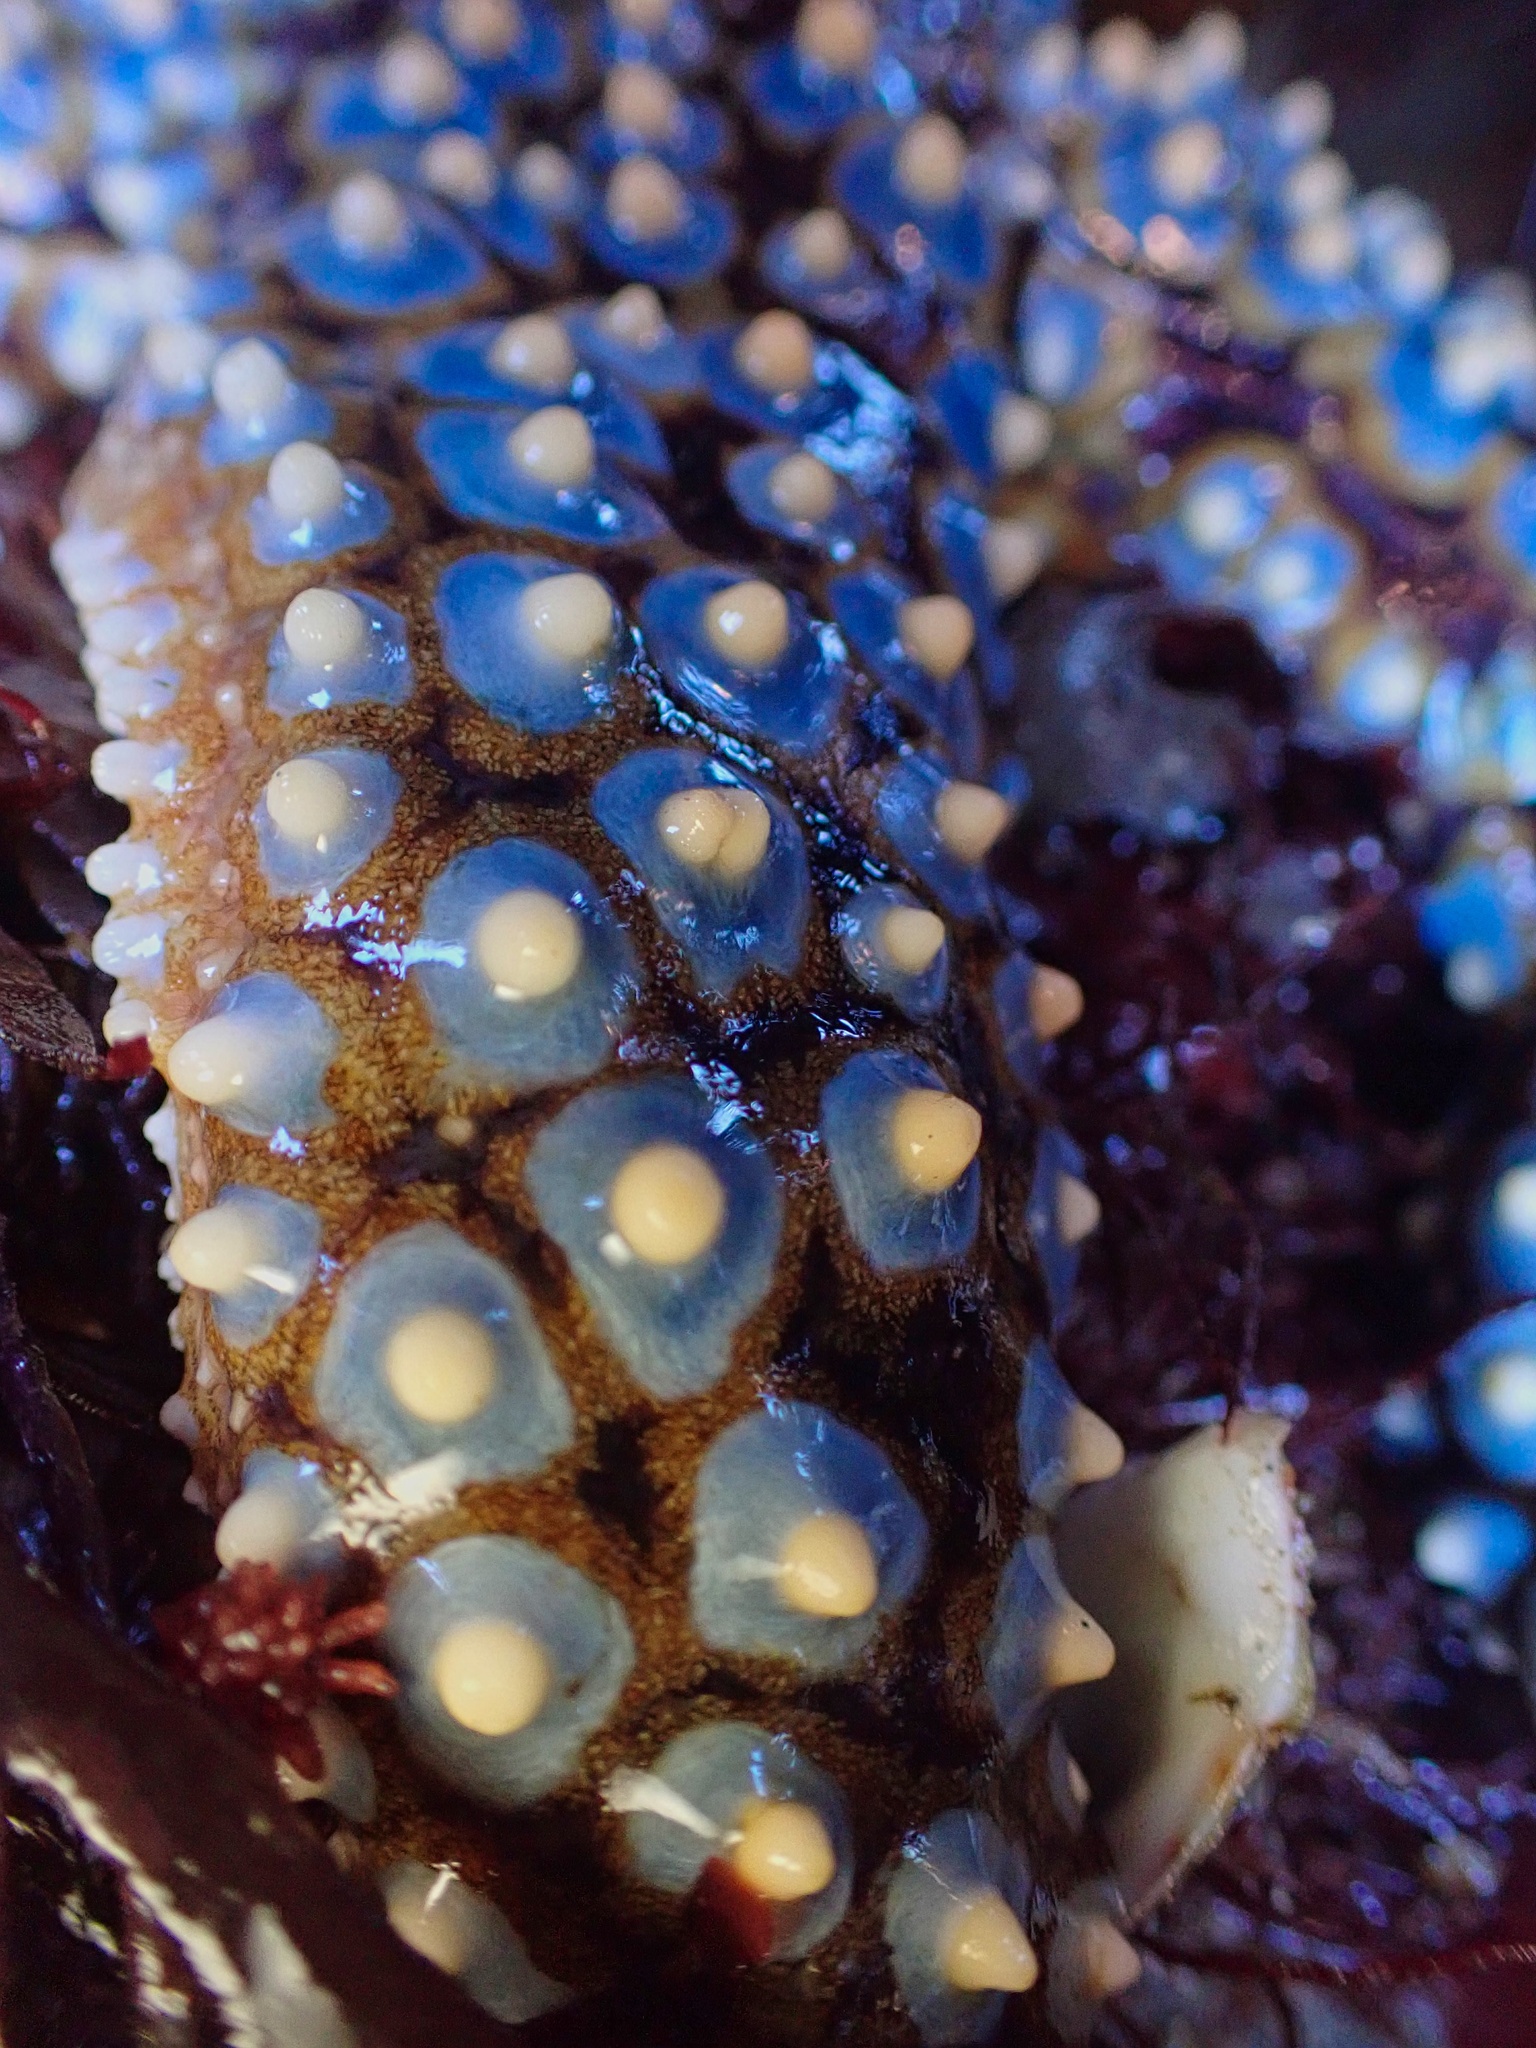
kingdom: Animalia
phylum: Echinodermata
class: Asteroidea
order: Forcipulatida
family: Asteriidae
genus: Pisaster
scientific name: Pisaster giganteus
